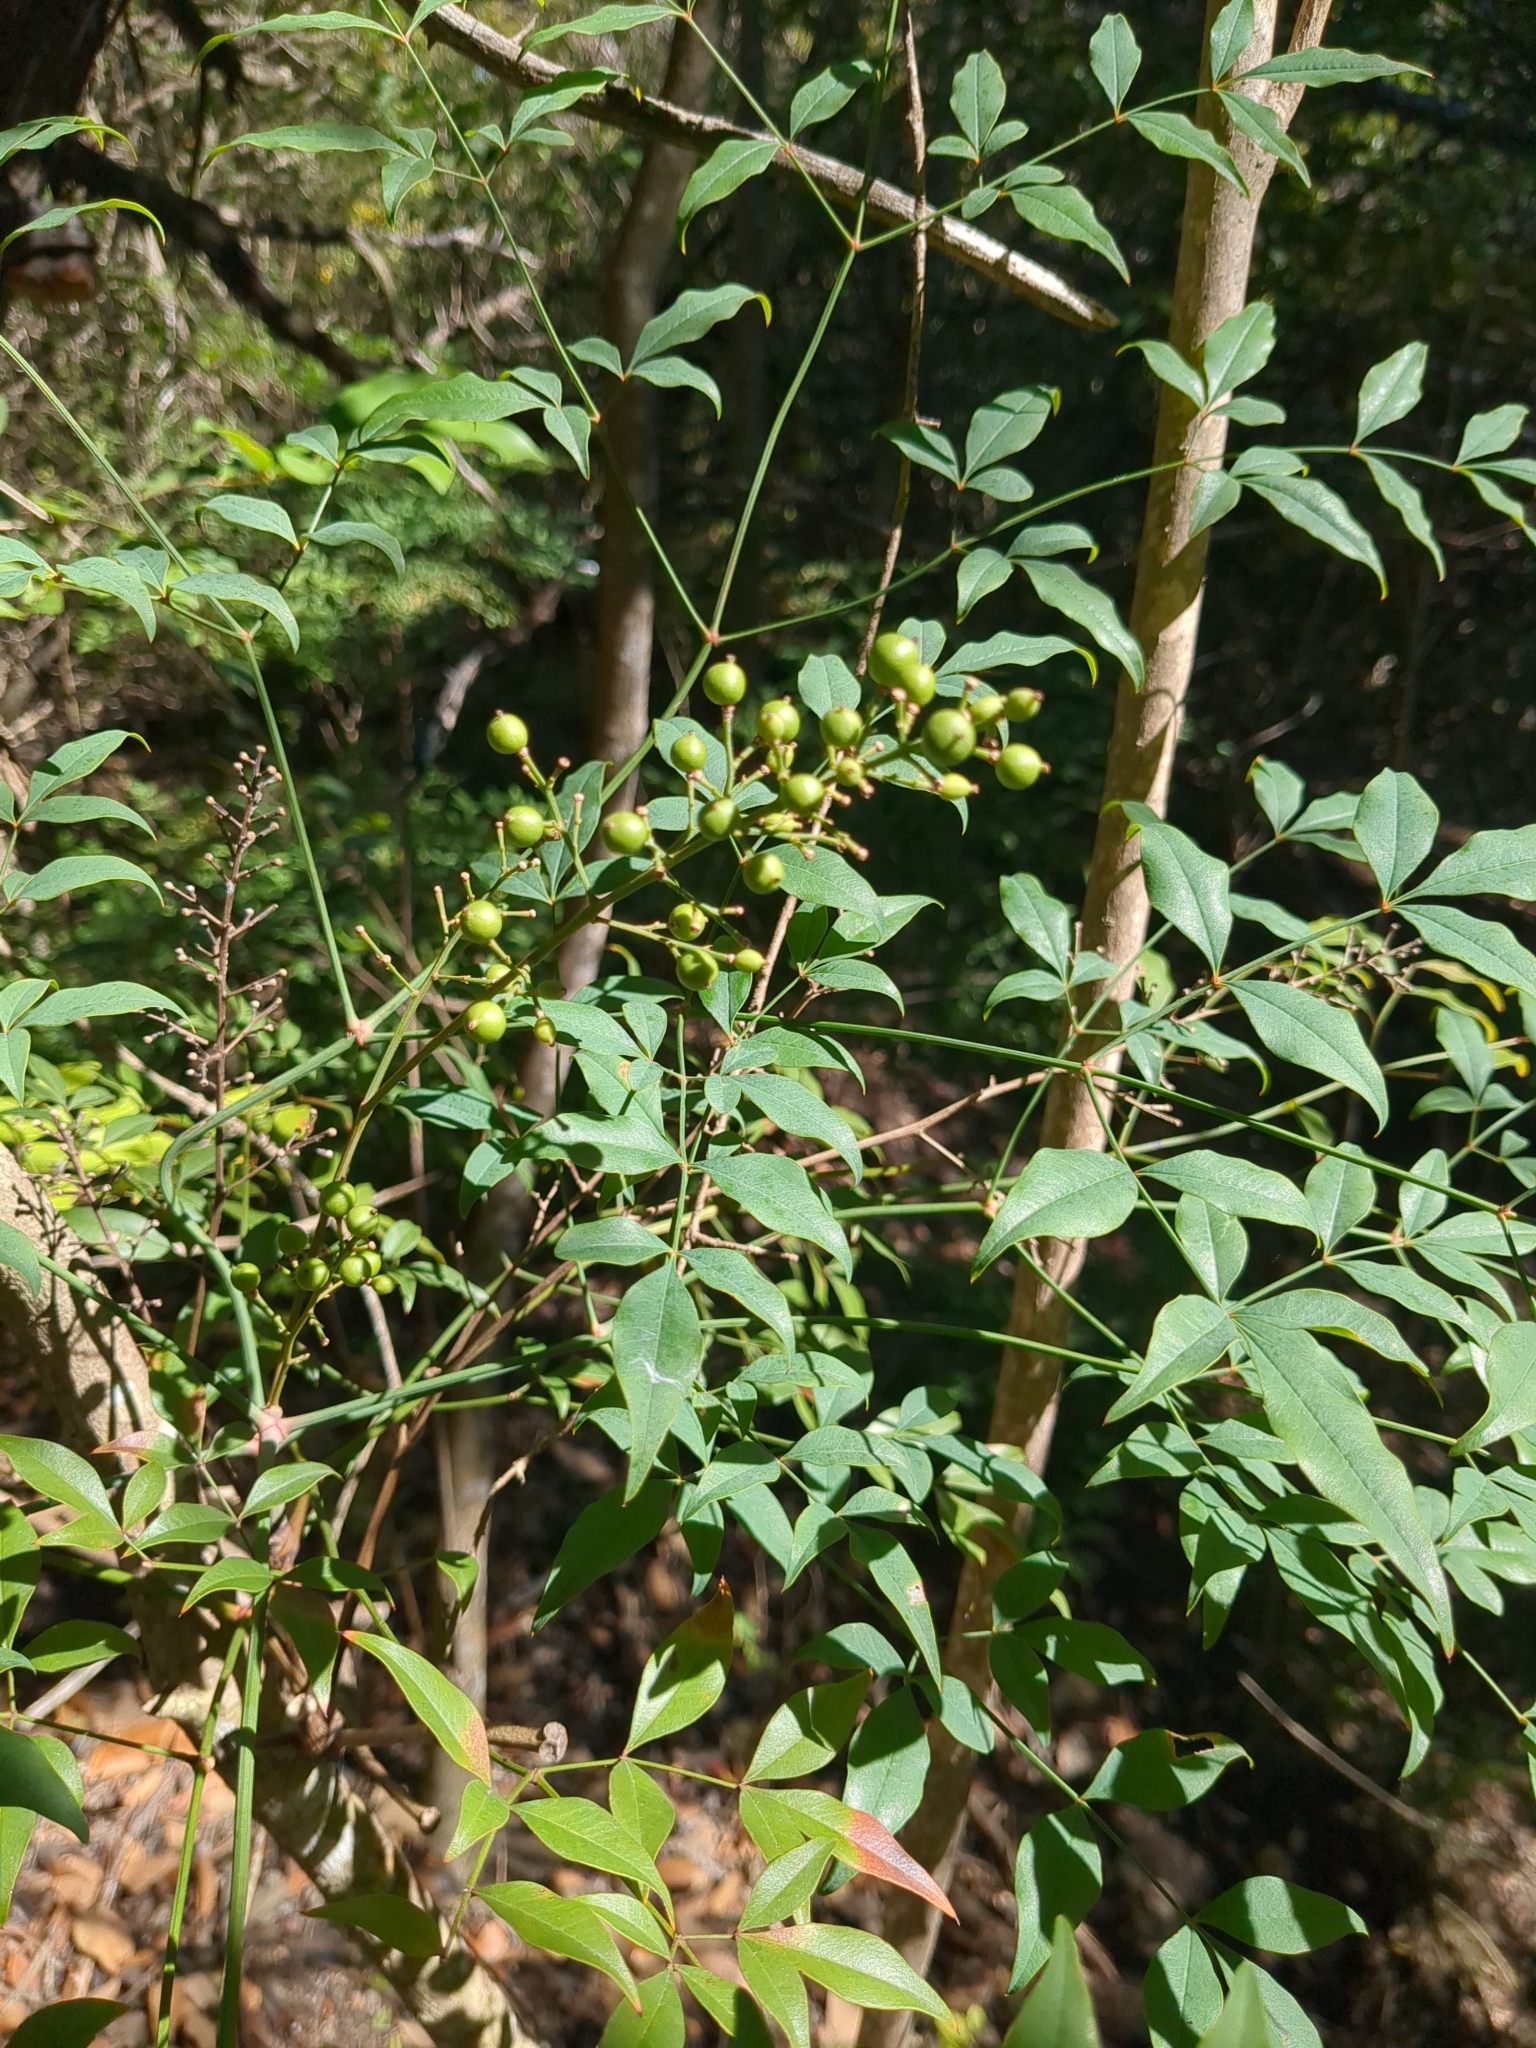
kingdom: Plantae
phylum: Tracheophyta
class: Magnoliopsida
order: Ranunculales
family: Berberidaceae
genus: Nandina
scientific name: Nandina domestica
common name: Sacred bamboo
